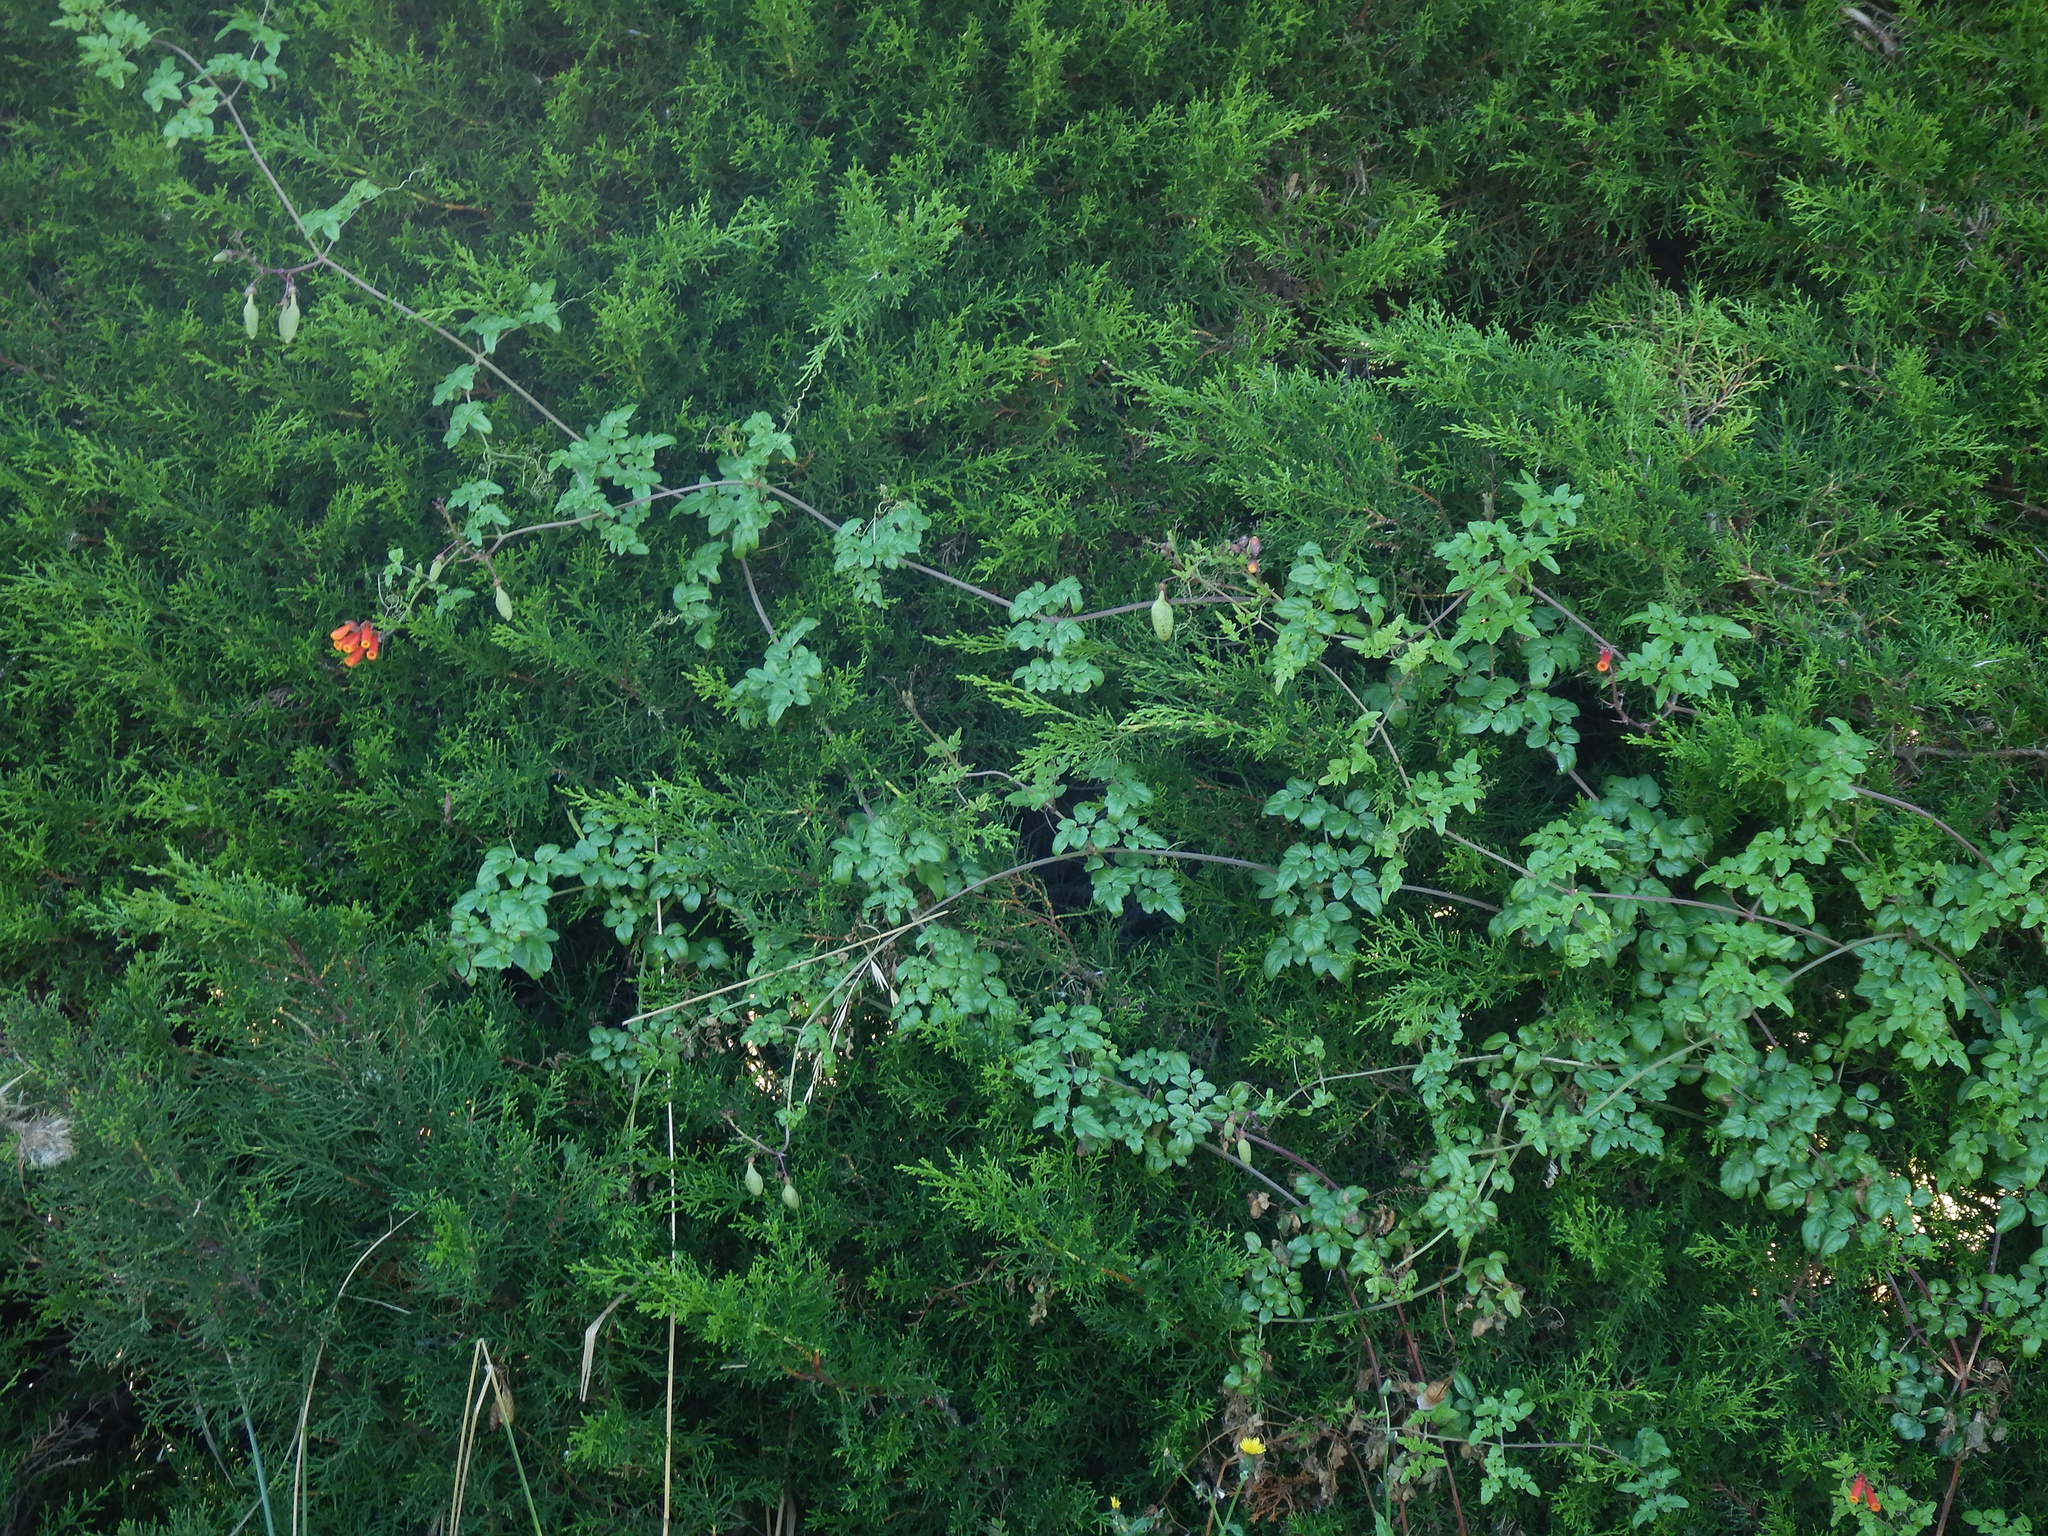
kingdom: Plantae
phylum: Tracheophyta
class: Magnoliopsida
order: Lamiales
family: Bignoniaceae
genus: Eccremocarpus
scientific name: Eccremocarpus scaber
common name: Chilean glory-flower
